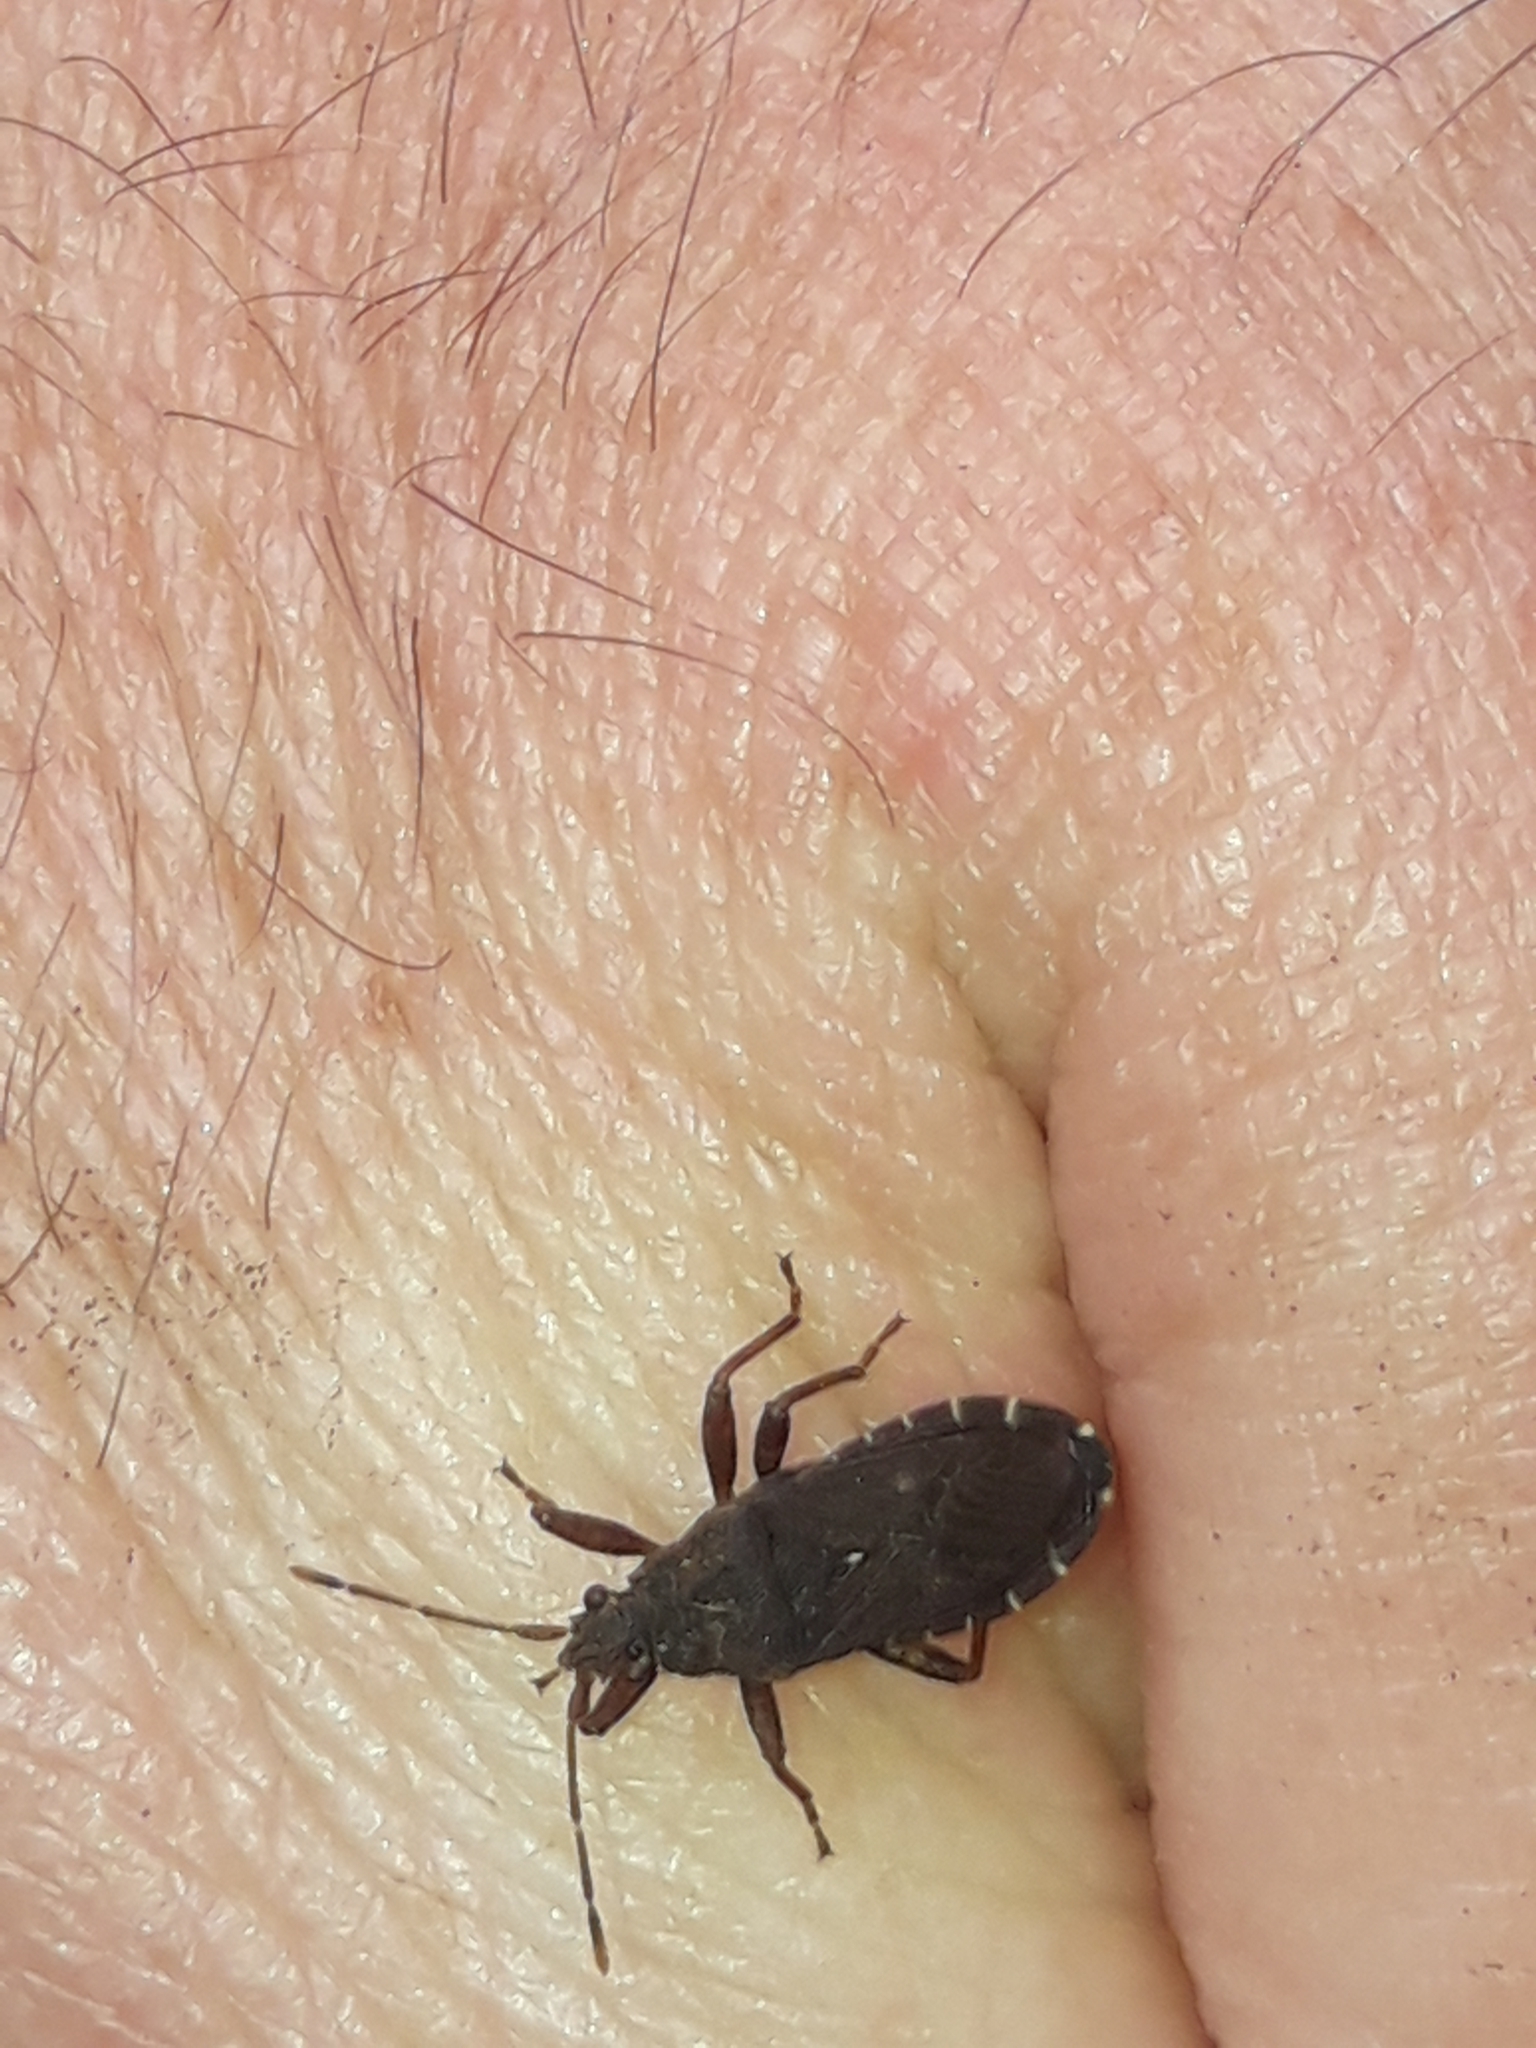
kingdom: Animalia
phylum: Arthropoda
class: Insecta
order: Hemiptera
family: Coreidae
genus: Acantholybas
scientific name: Acantholybas brunneus
